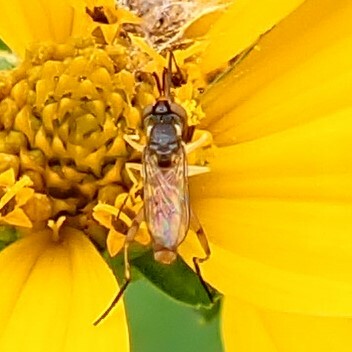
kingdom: Animalia
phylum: Arthropoda
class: Insecta
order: Diptera
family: Conopidae
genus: Stylogaster
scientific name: Stylogaster neglecta
